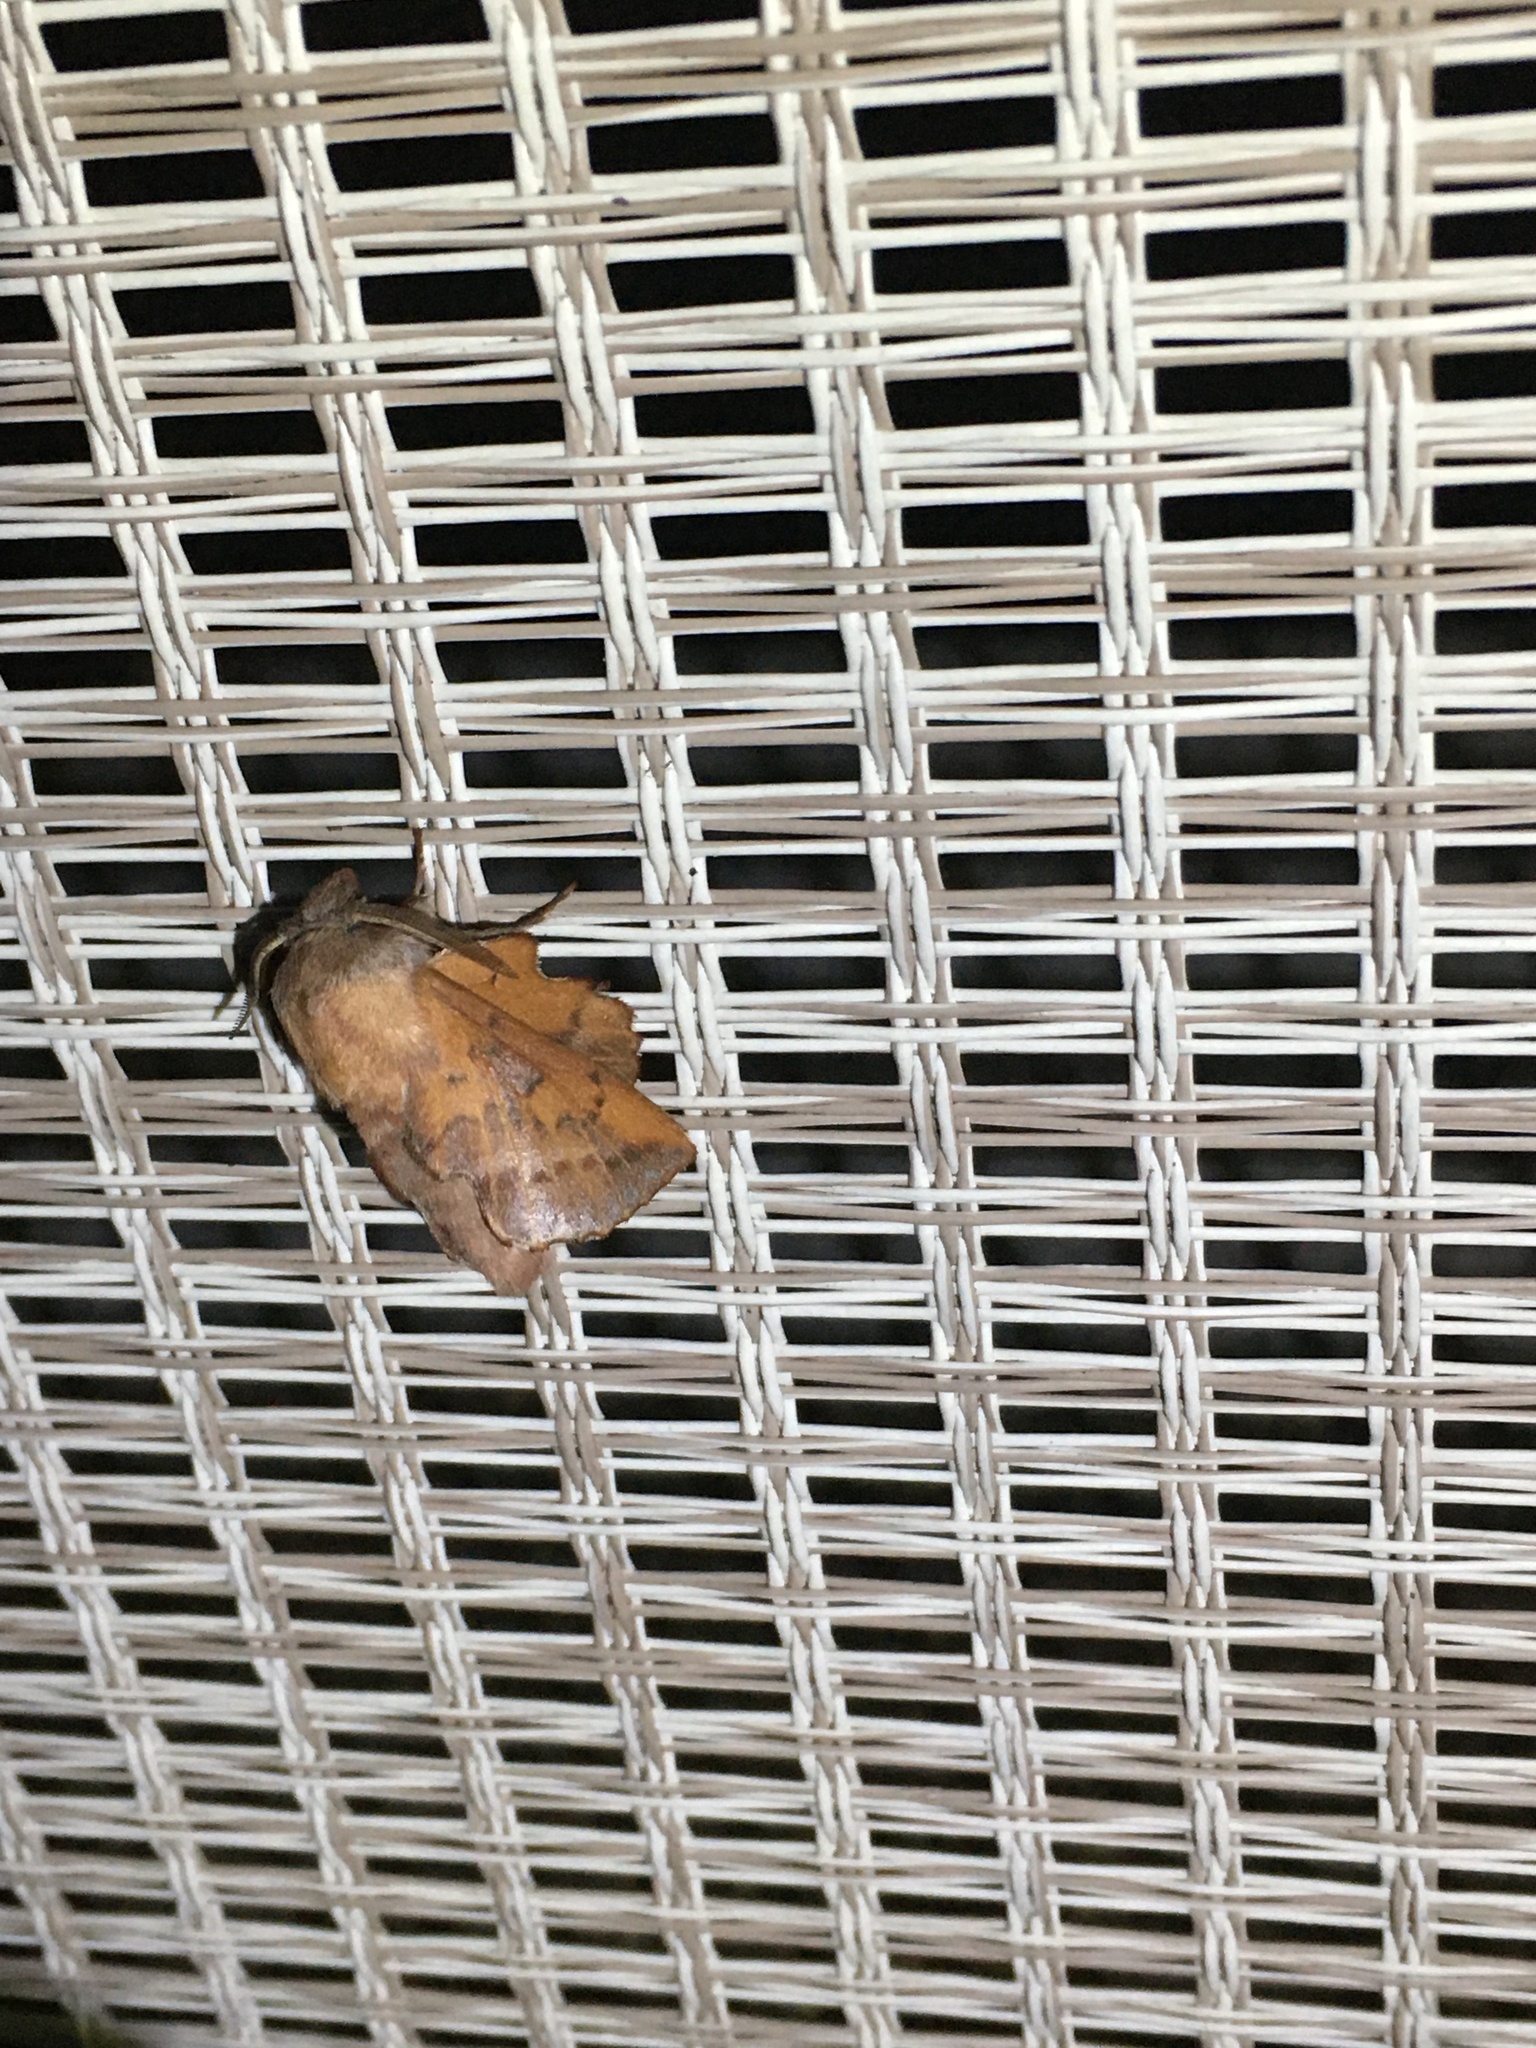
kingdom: Animalia
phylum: Arthropoda
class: Insecta
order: Lepidoptera
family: Lasiocampidae
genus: Phyllodesma
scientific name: Phyllodesma americana
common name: American lappet moth
